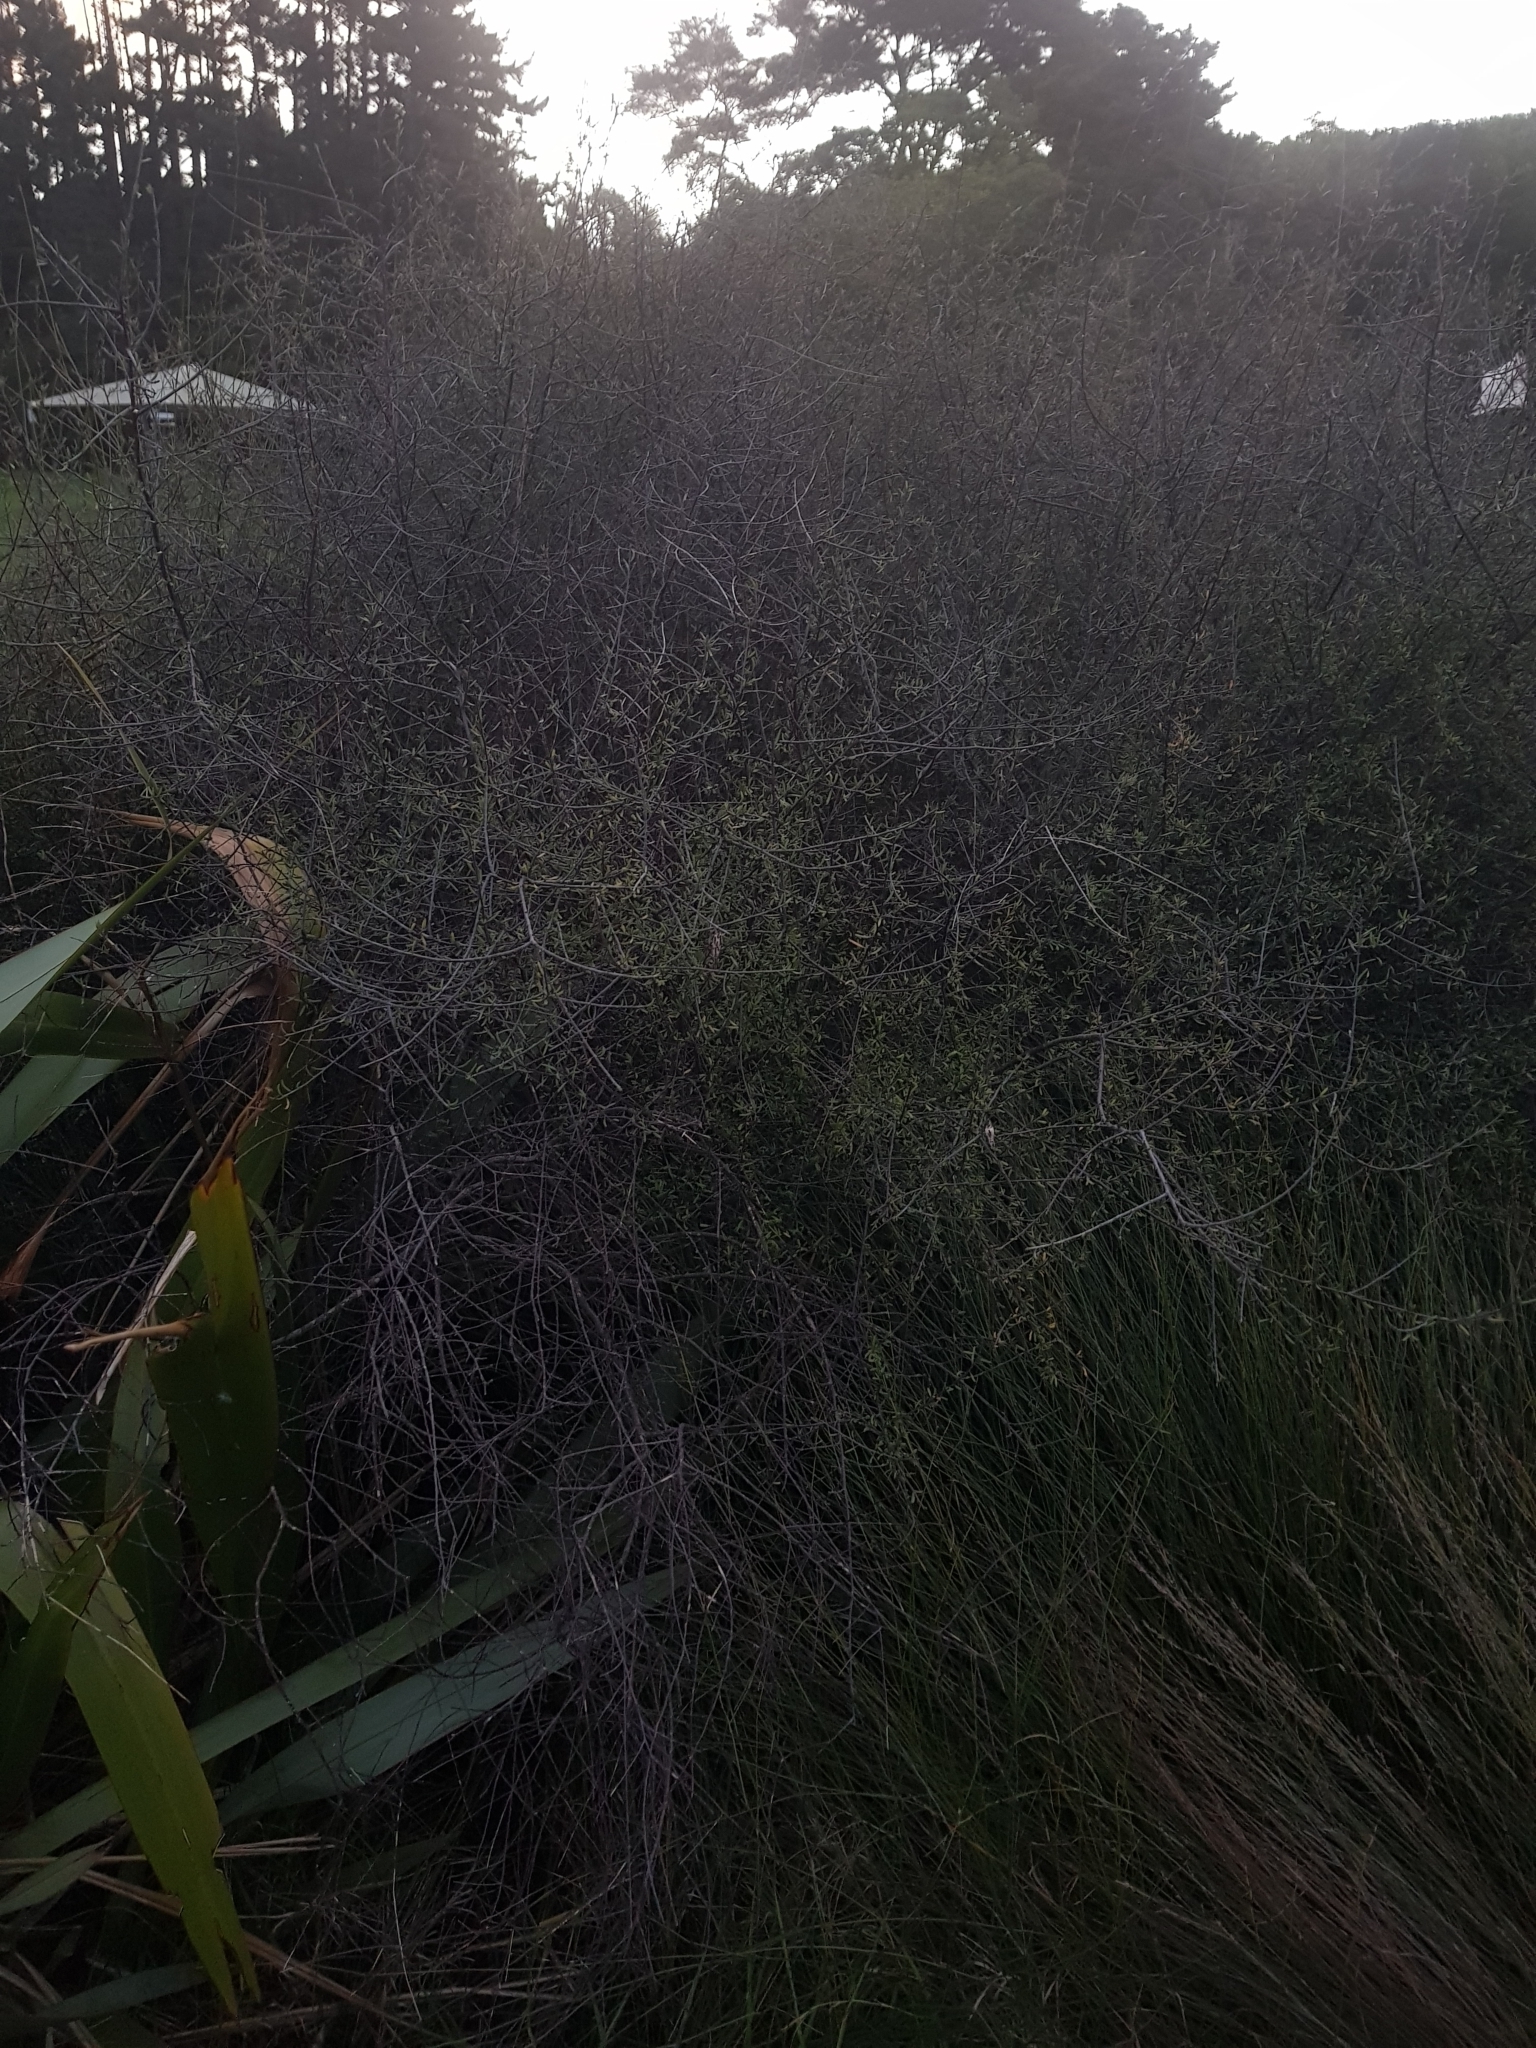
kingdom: Plantae
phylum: Tracheophyta
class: Magnoliopsida
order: Malvales
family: Malvaceae
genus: Plagianthus
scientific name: Plagianthus divaricatus
